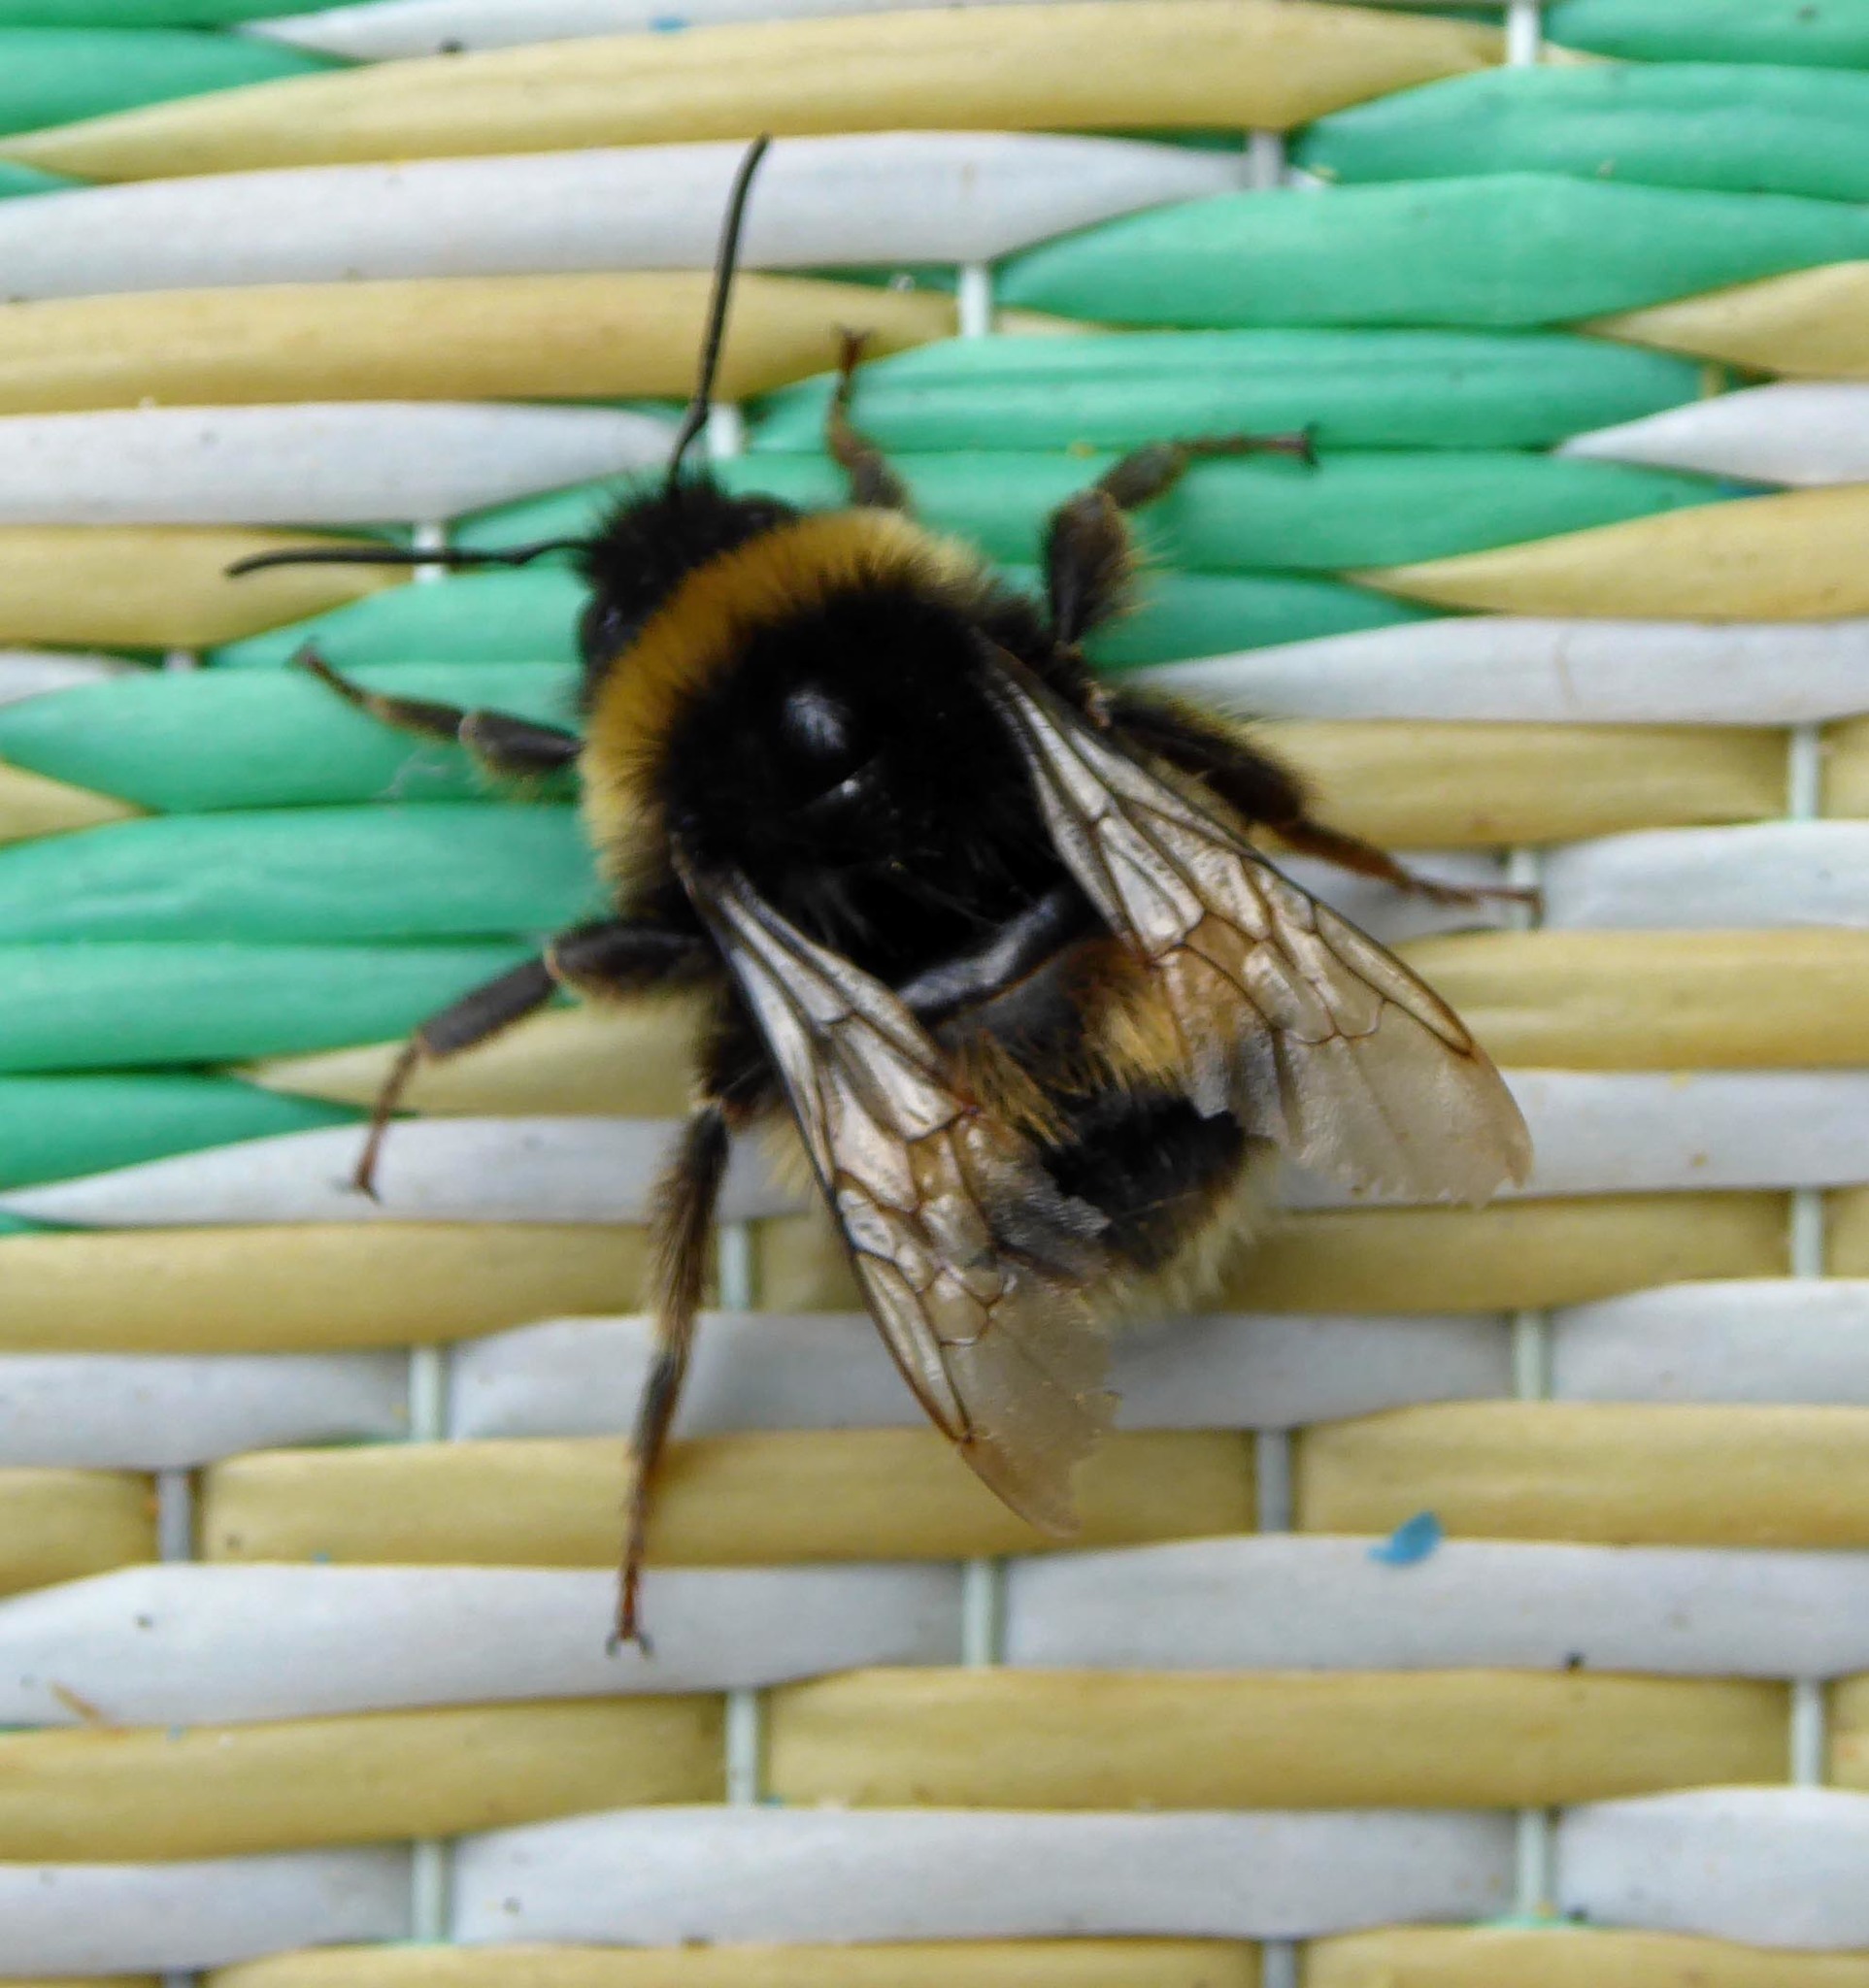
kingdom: Animalia
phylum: Arthropoda
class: Insecta
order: Hymenoptera
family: Apidae
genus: Bombus
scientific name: Bombus terrestris
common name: Buff-tailed bumblebee
